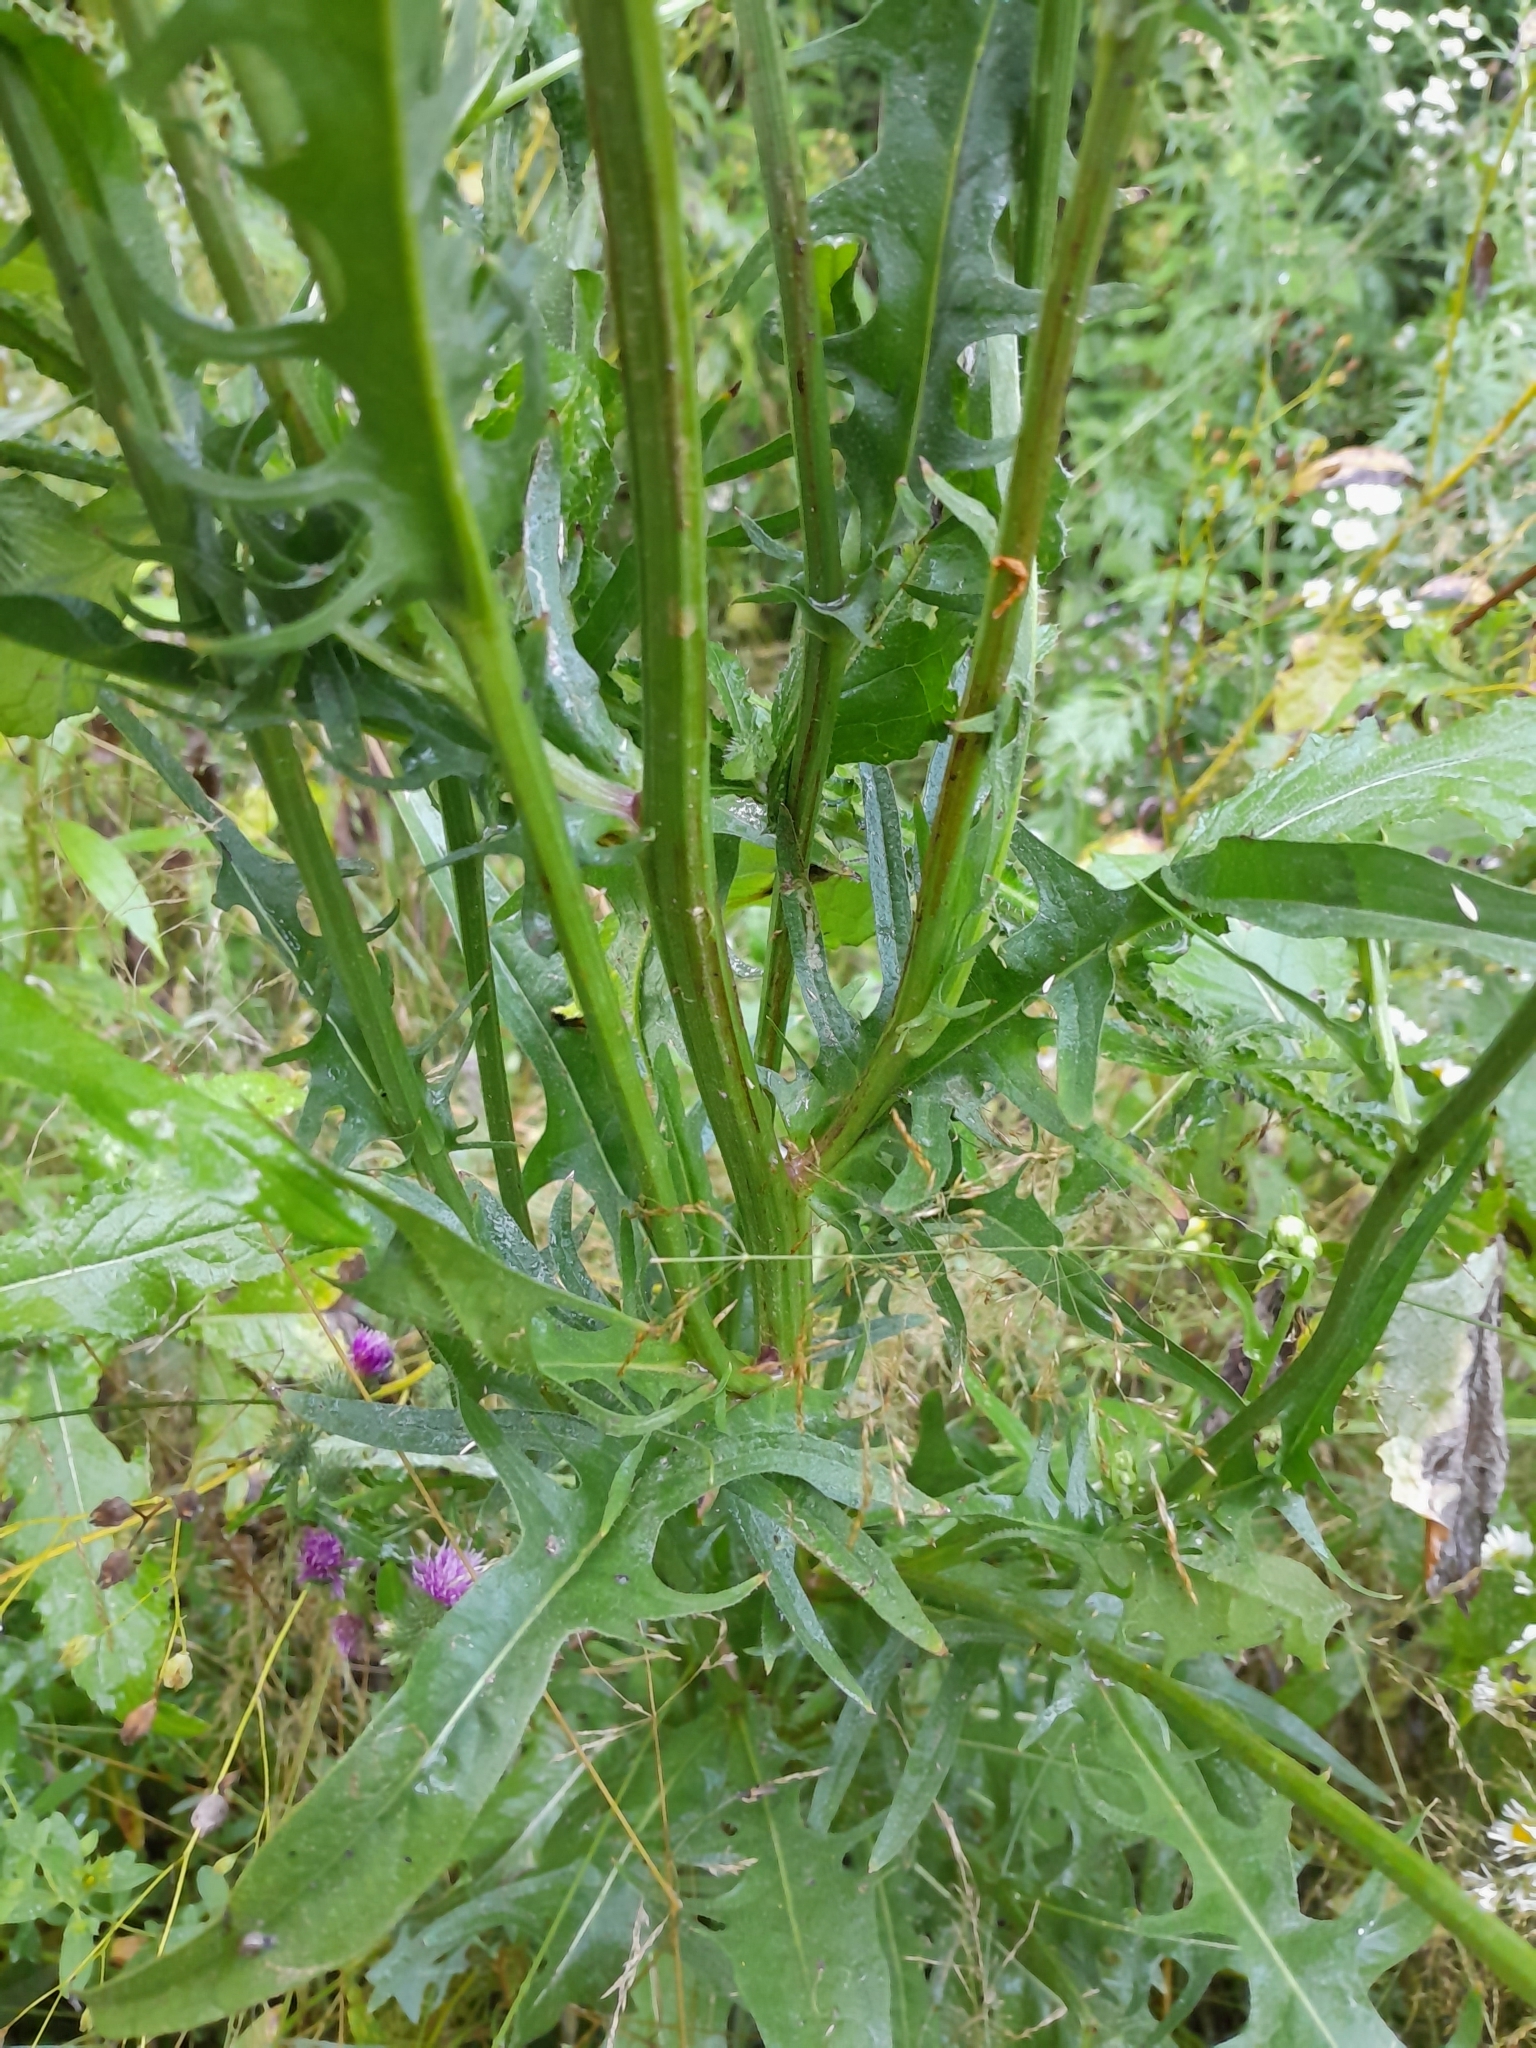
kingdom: Plantae
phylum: Tracheophyta
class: Magnoliopsida
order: Asterales
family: Asteraceae
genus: Crepis
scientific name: Crepis biennis
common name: Rough hawk's-beard
